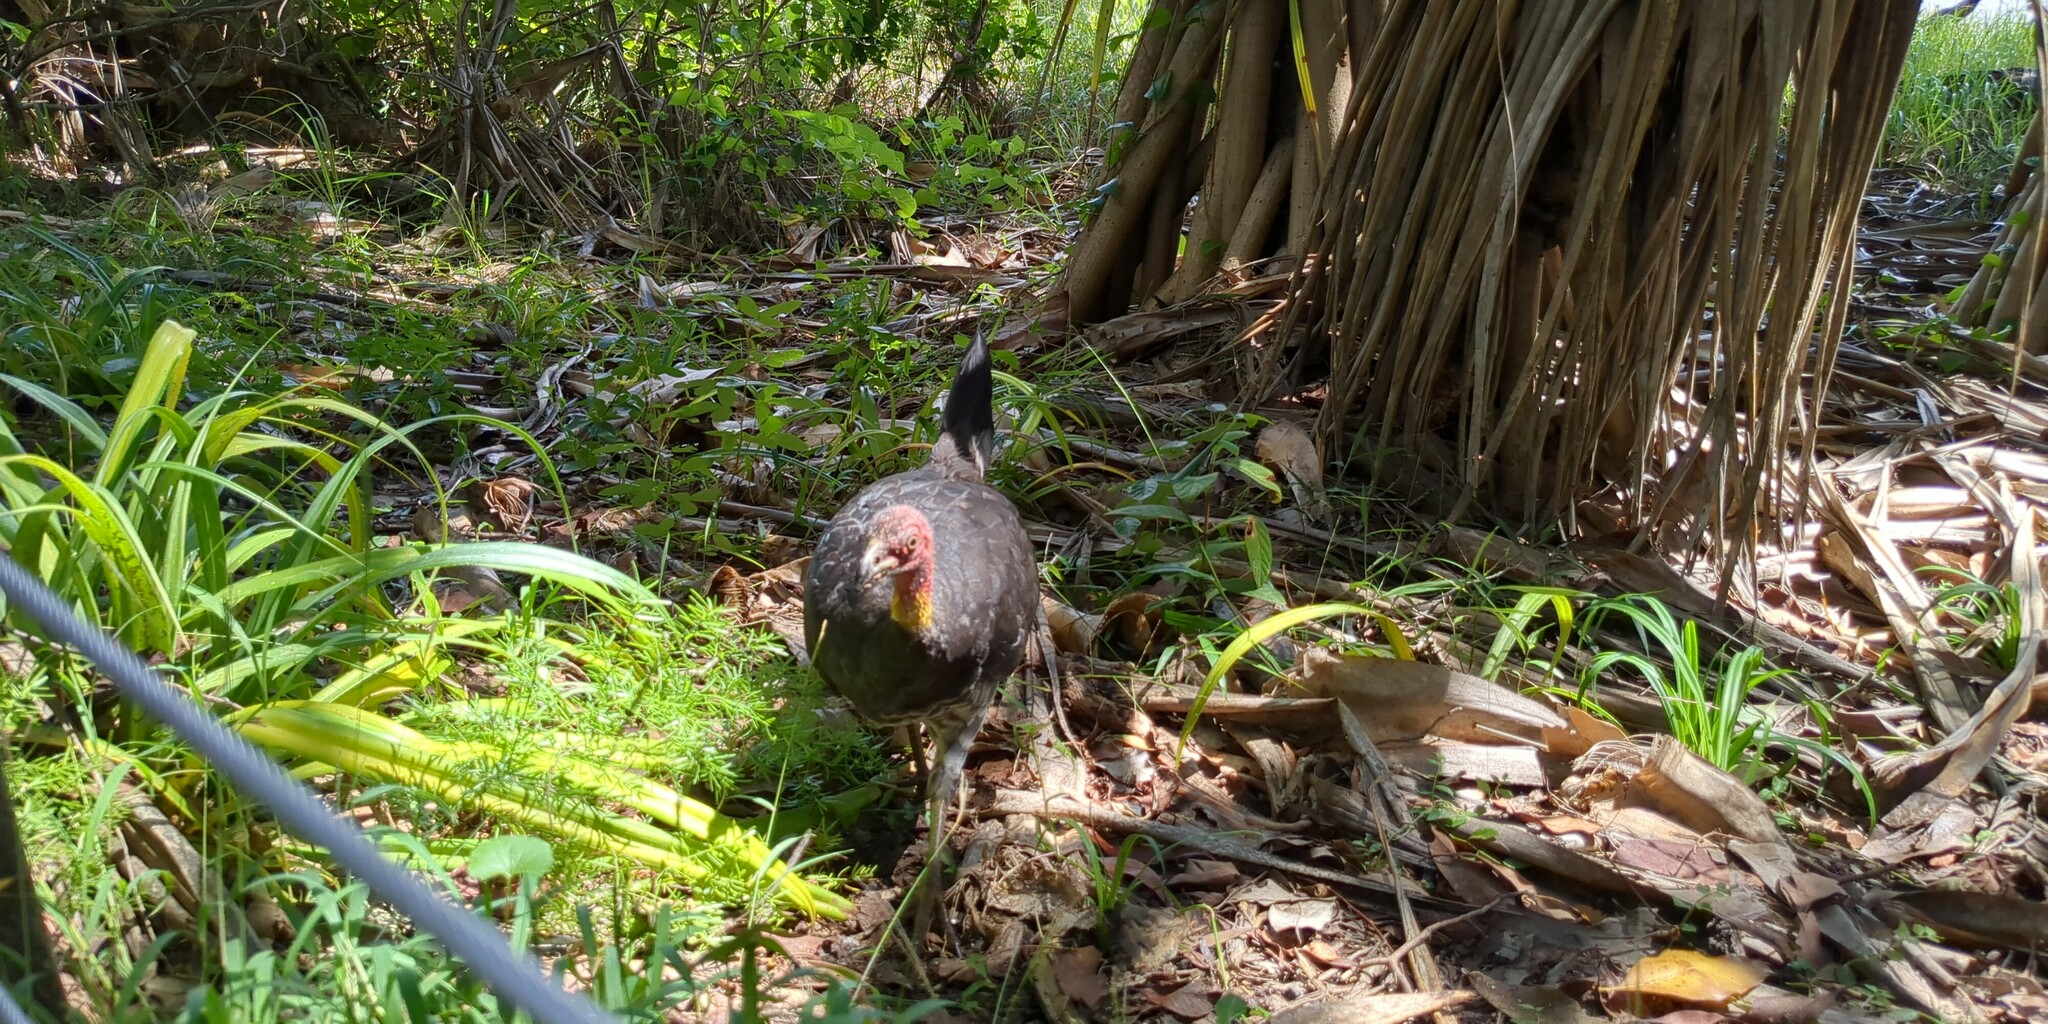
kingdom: Animalia
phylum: Chordata
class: Aves
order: Galliformes
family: Megapodiidae
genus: Alectura
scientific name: Alectura lathami
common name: Australian brushturkey
